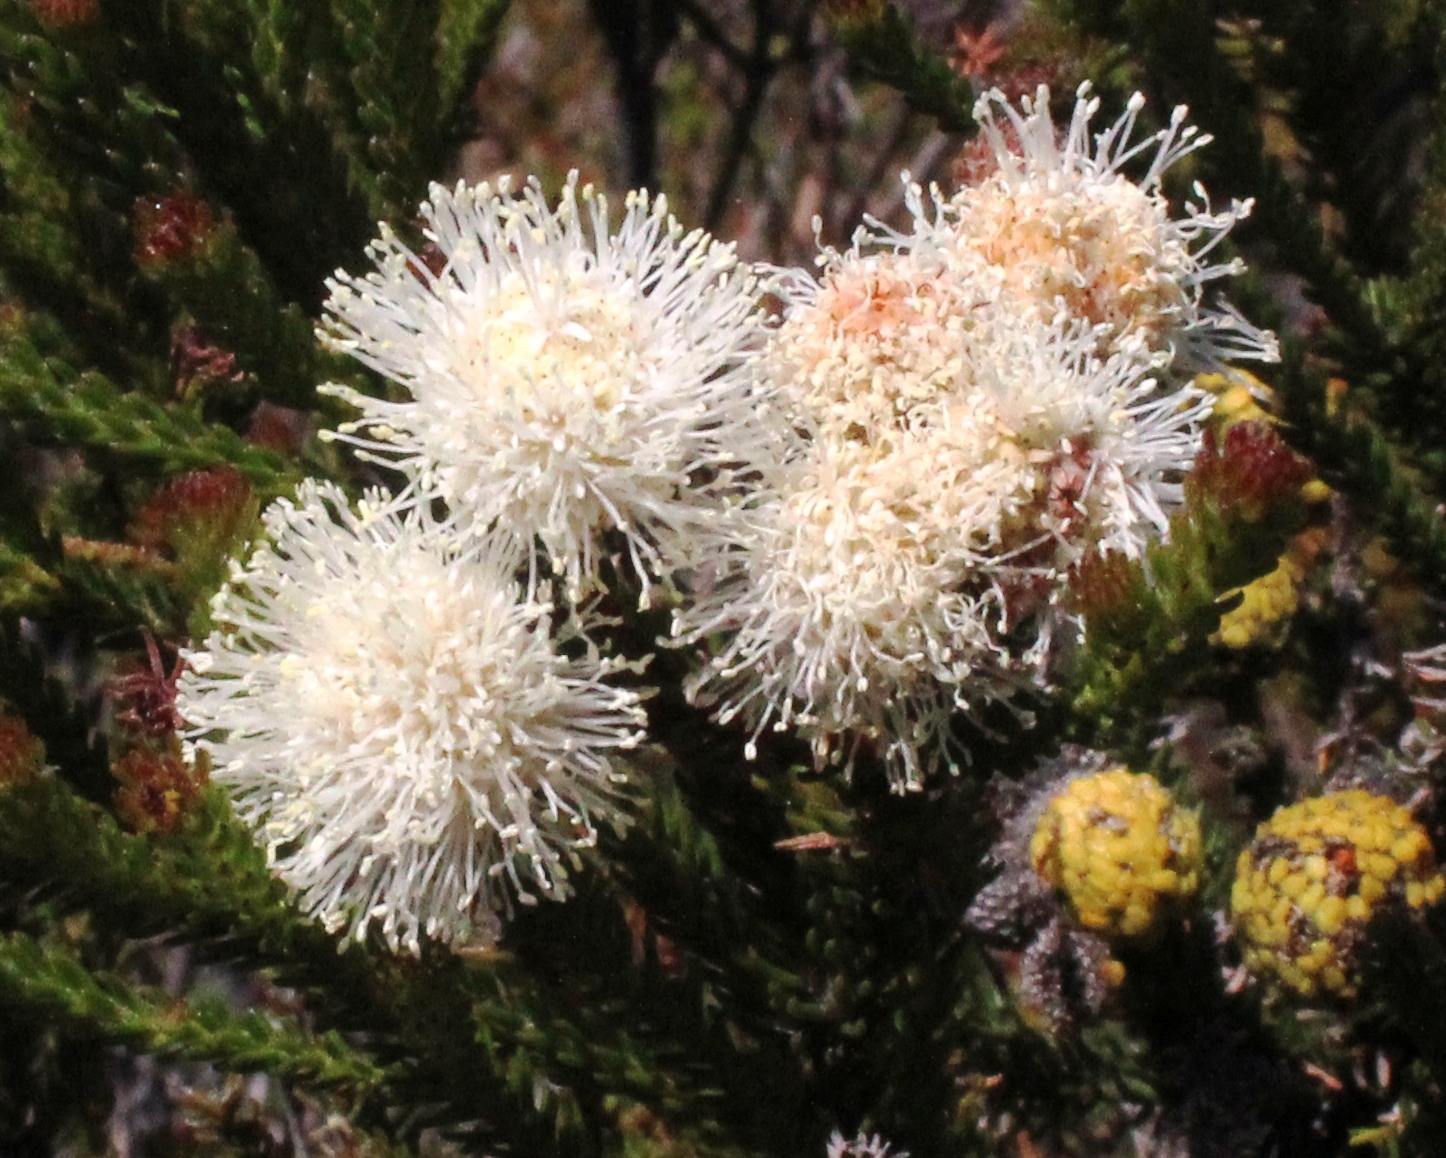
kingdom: Plantae
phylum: Tracheophyta
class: Magnoliopsida
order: Bruniales
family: Bruniaceae
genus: Brunia
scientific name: Brunia noduliflora
